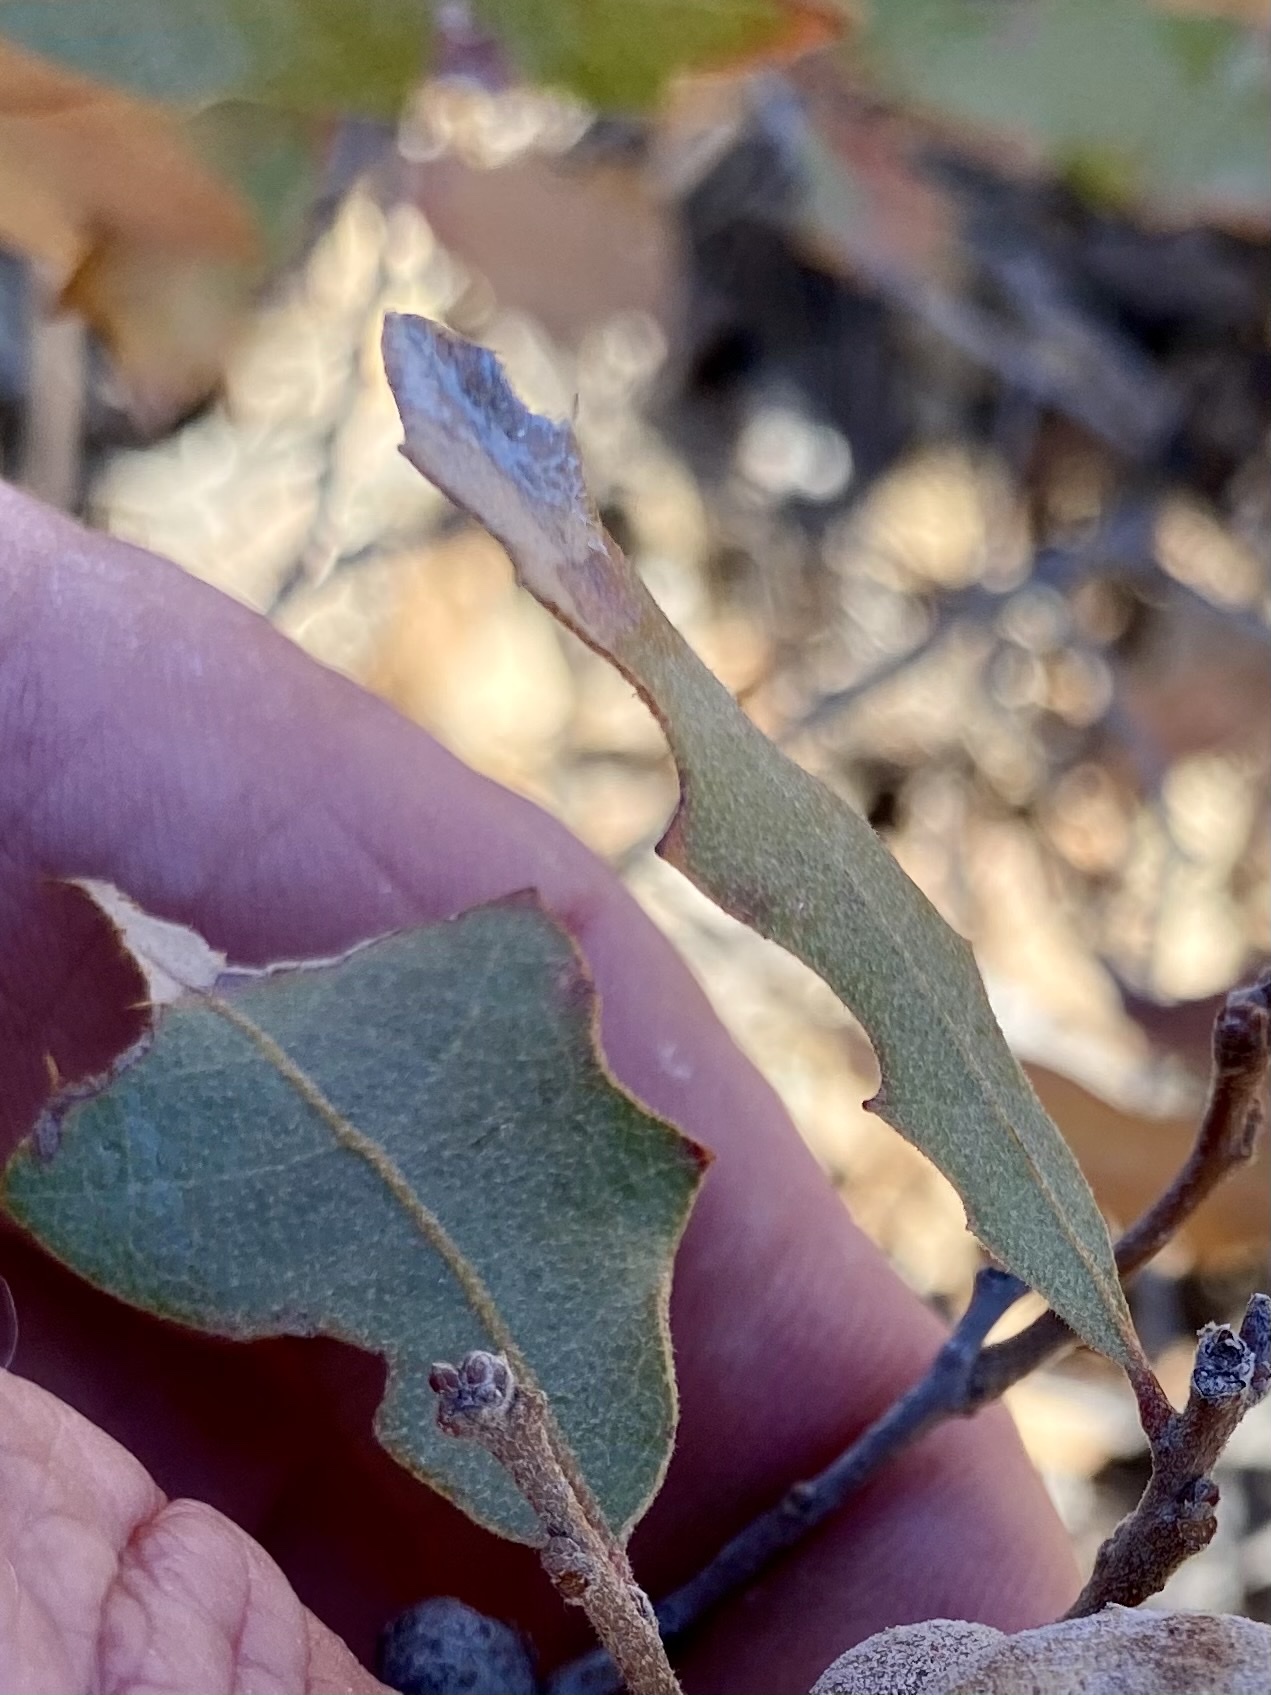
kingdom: Plantae
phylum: Tracheophyta
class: Magnoliopsida
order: Fagales
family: Fagaceae
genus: Quercus
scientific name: Quercus havardii
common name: Shinnery oak
